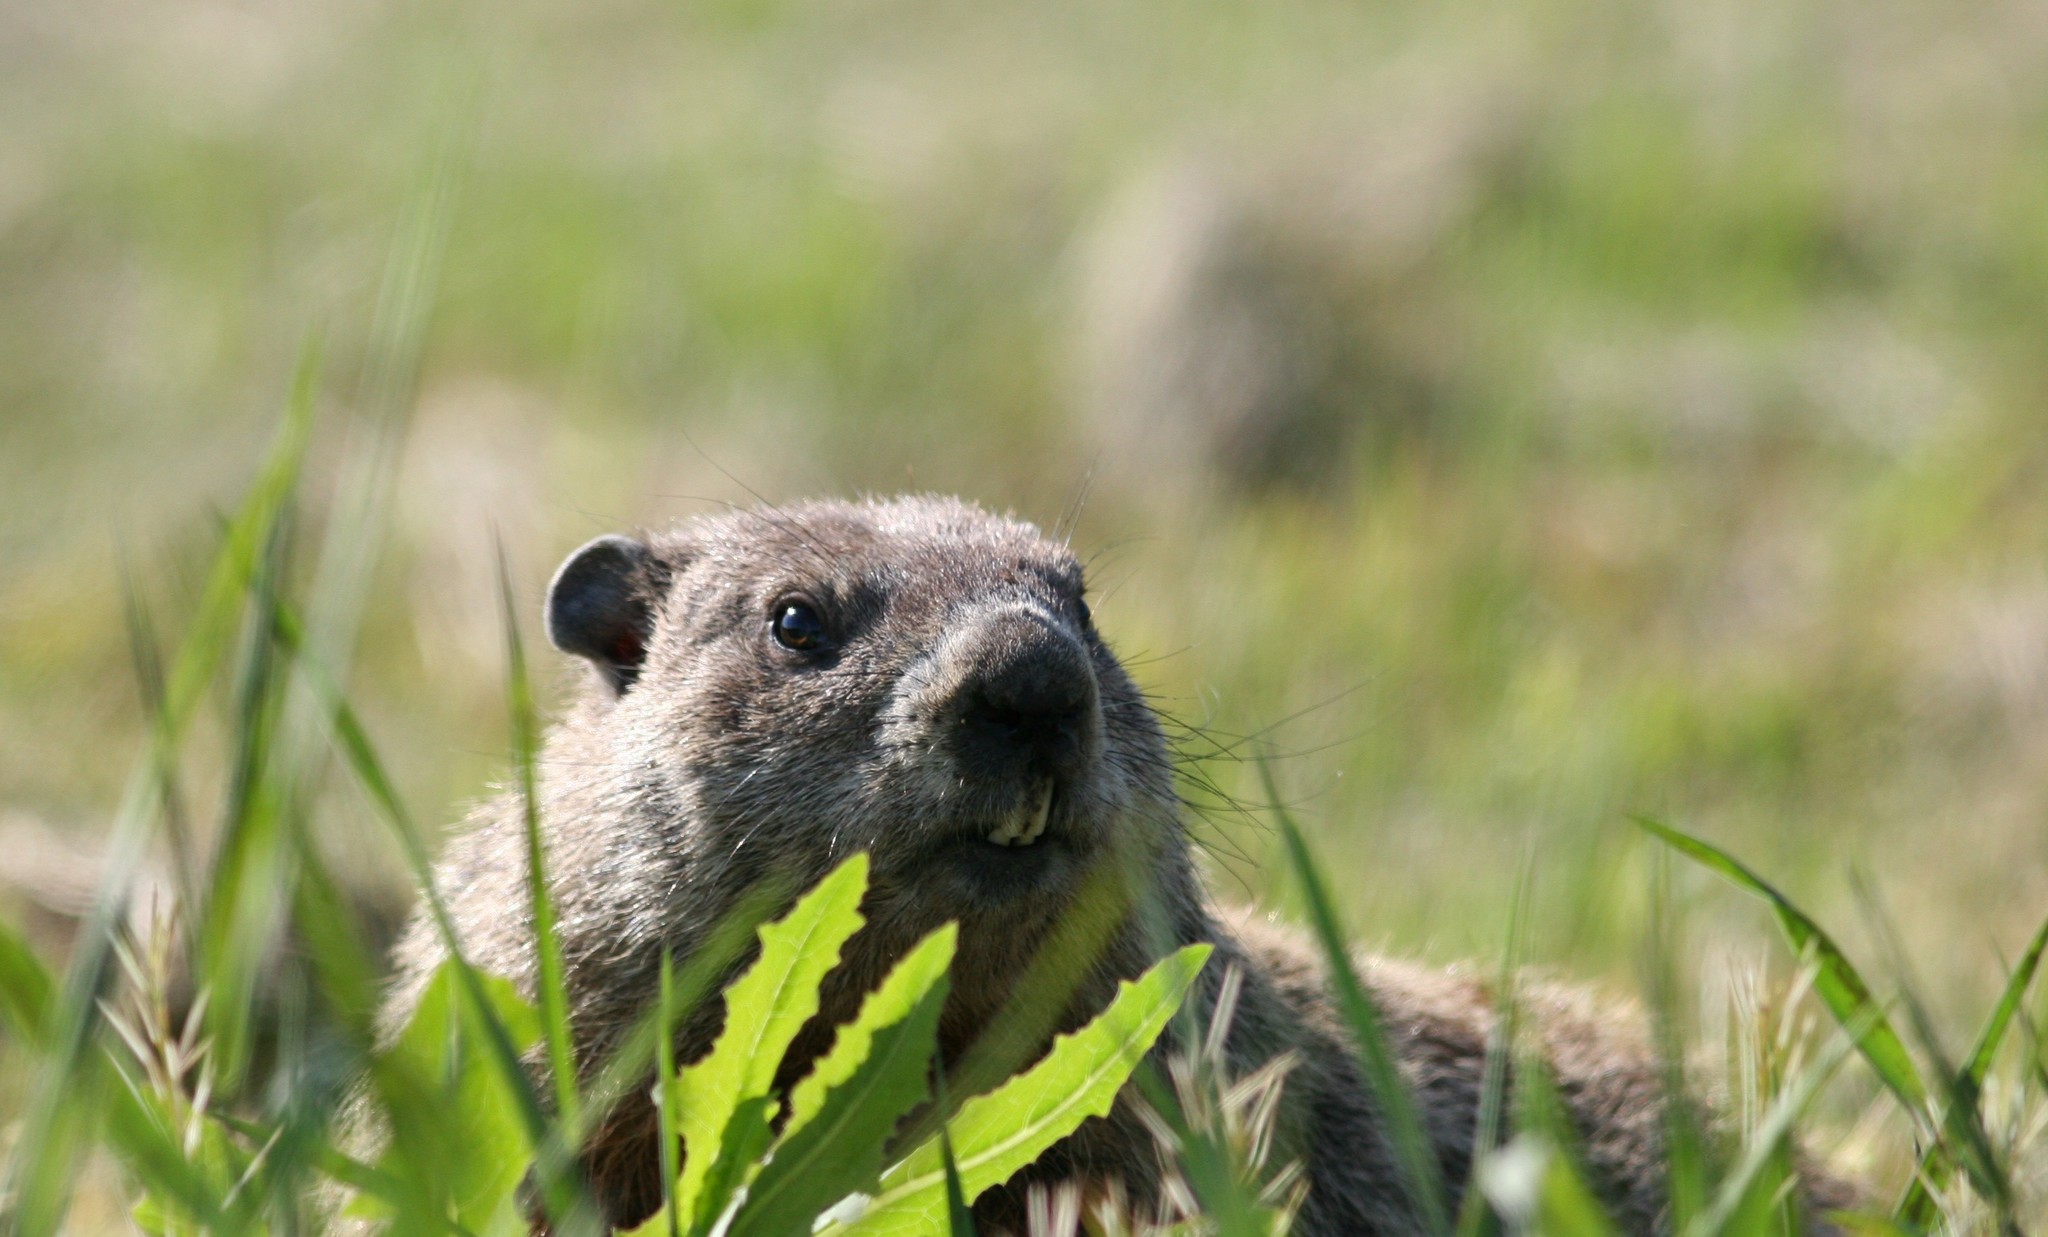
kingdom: Animalia
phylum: Chordata
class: Mammalia
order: Rodentia
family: Sciuridae
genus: Marmota
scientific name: Marmota monax
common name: Groundhog
